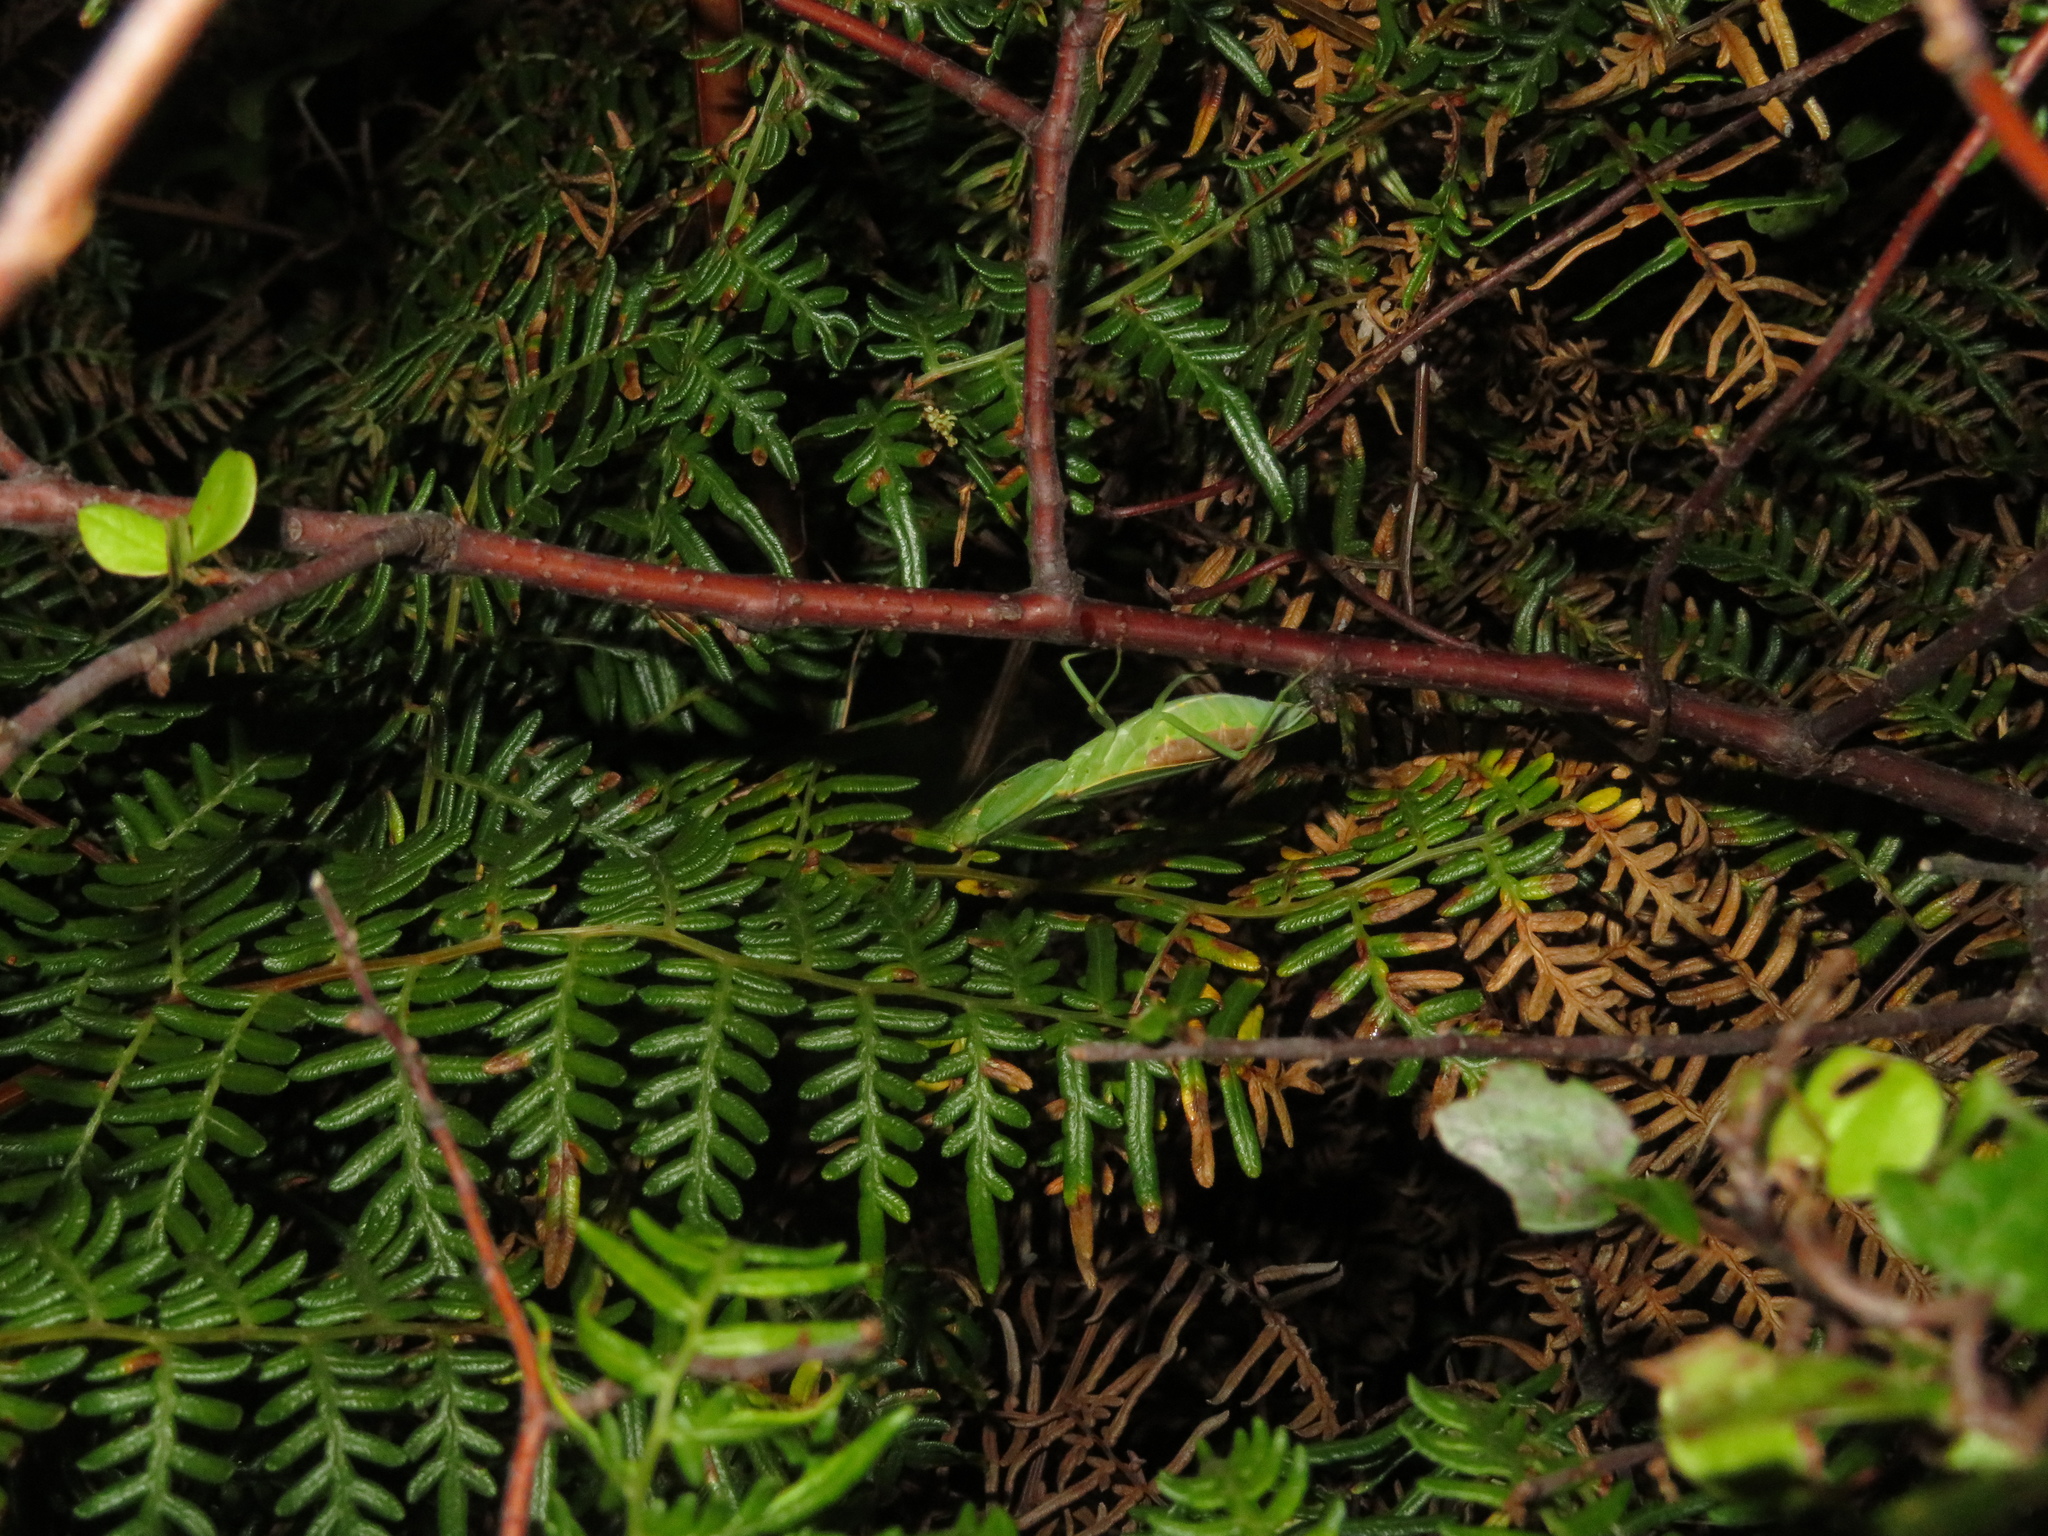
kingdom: Animalia
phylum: Arthropoda
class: Insecta
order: Mantodea
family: Mantidae
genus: Orthodera
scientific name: Orthodera novaezealandiae
